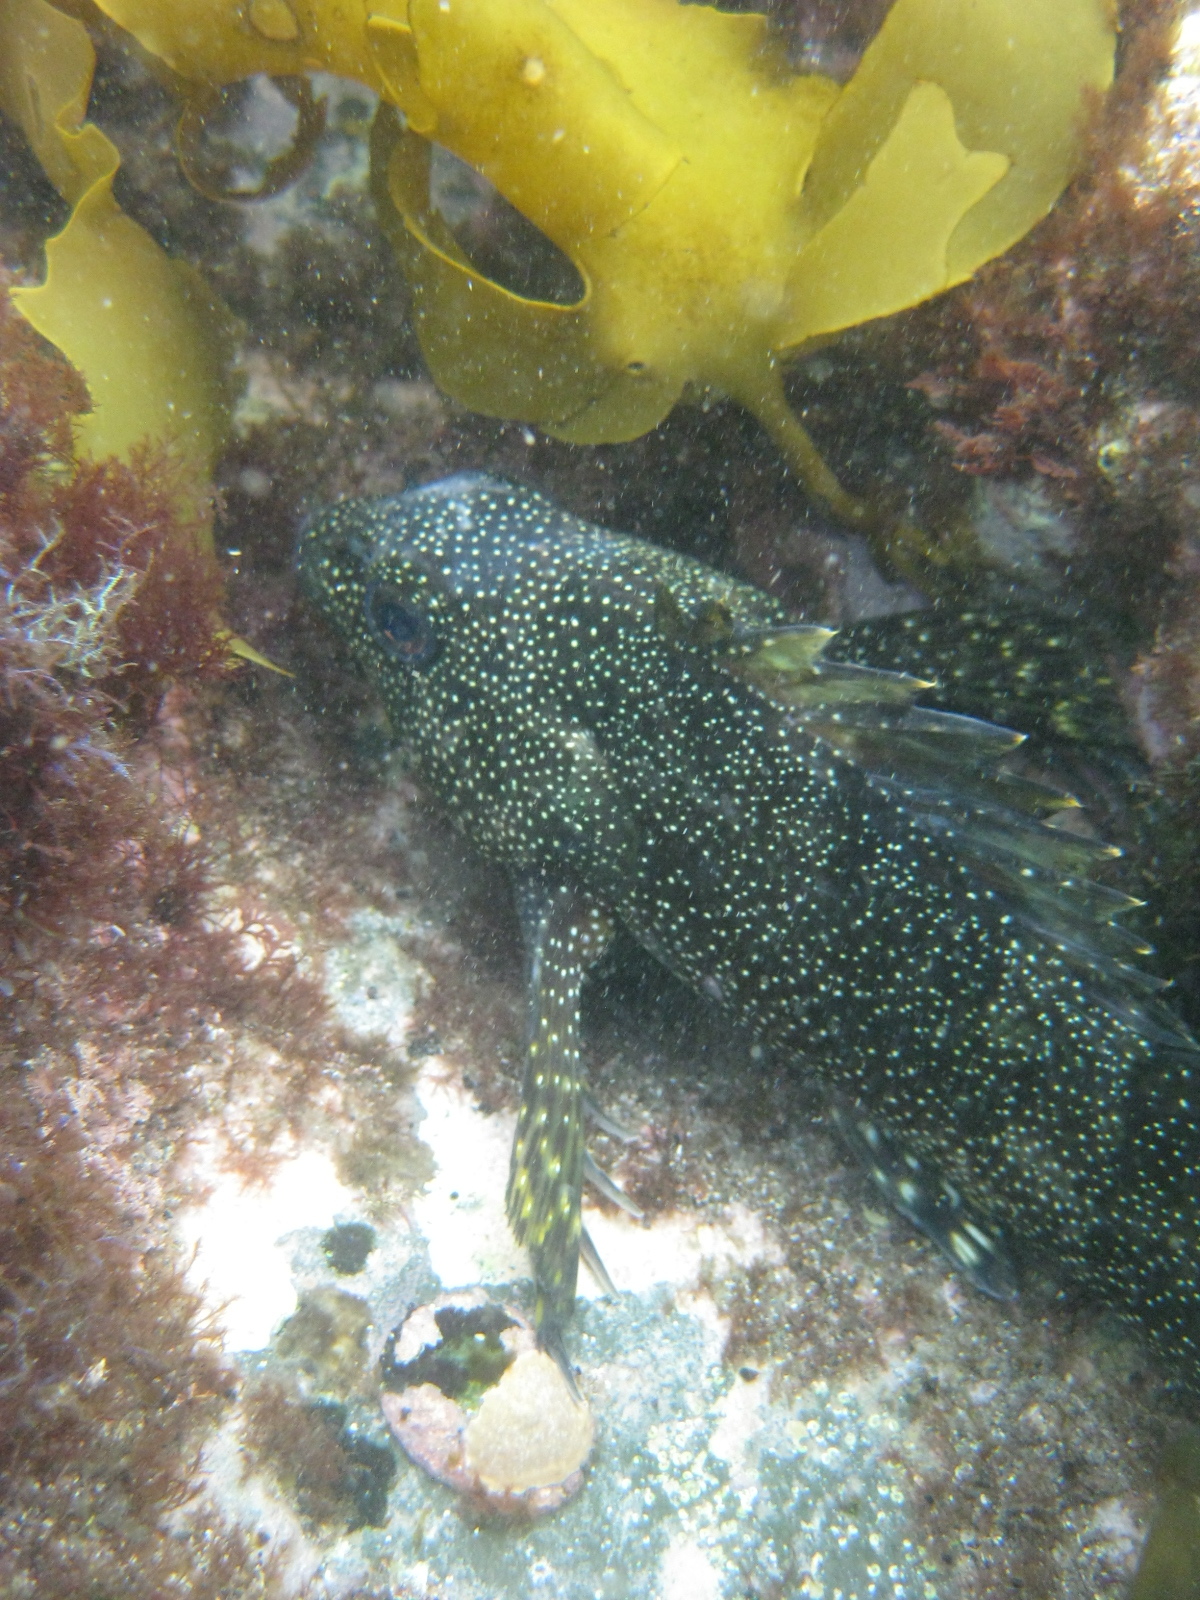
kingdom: Animalia
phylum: Chordata
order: Perciformes
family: Chironemidae
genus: Chironemus
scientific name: Chironemus marmoratus
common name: Kelpfish
